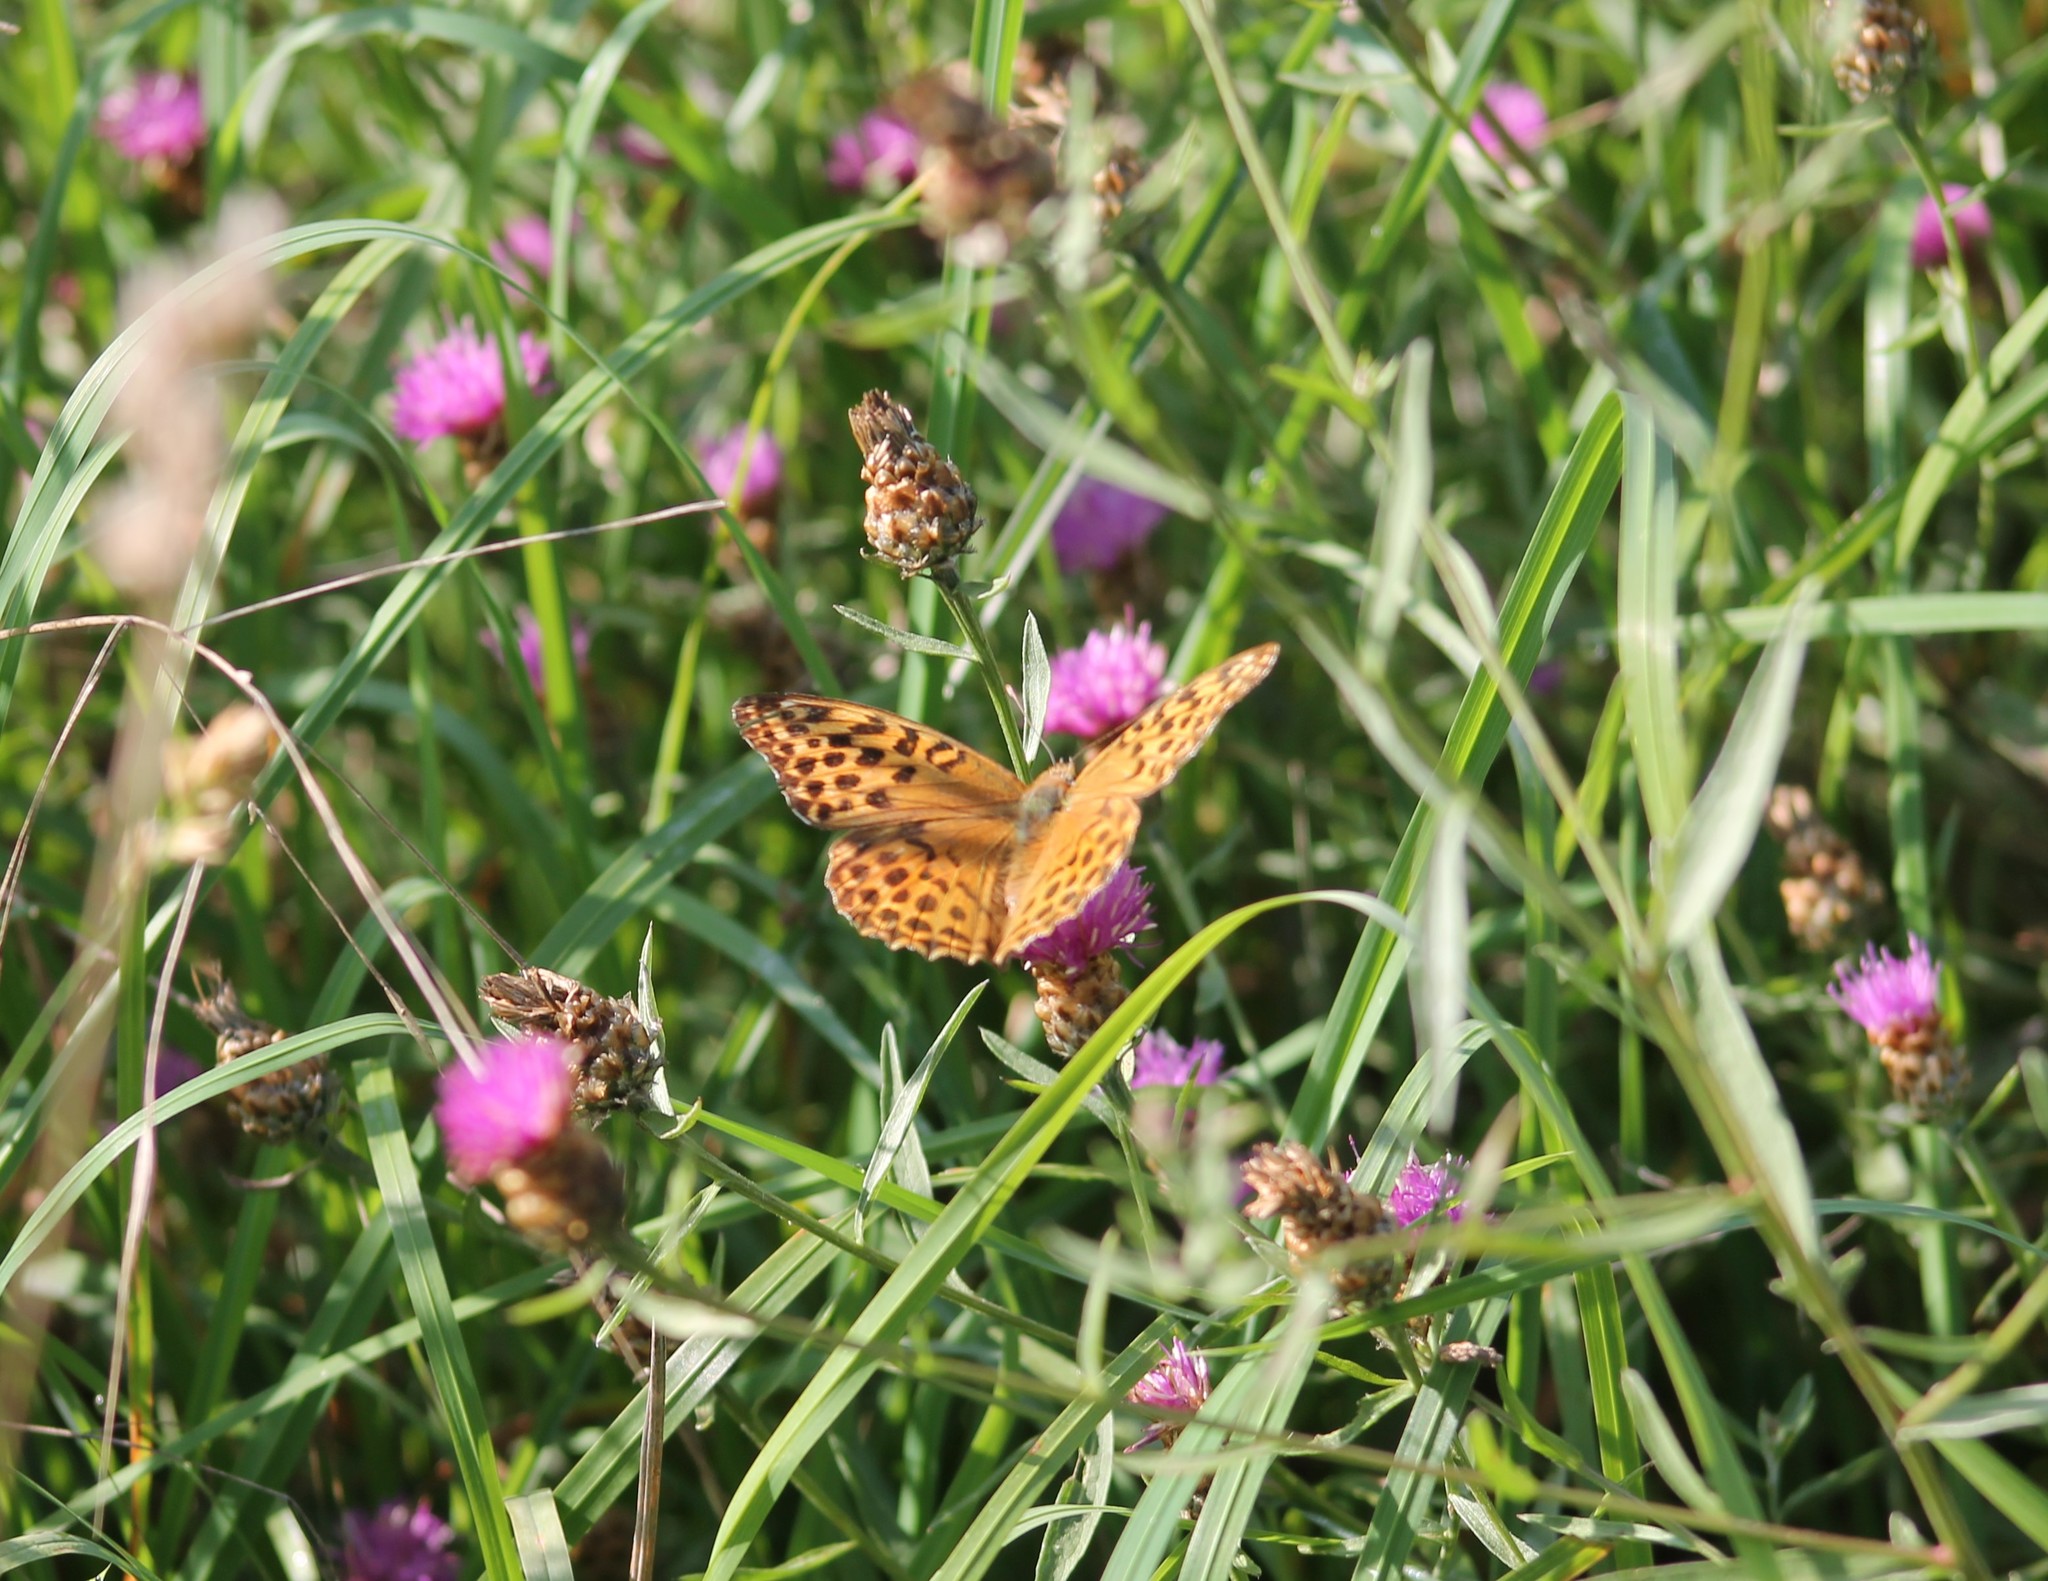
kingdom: Animalia
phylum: Arthropoda
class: Insecta
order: Lepidoptera
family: Nymphalidae
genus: Argynnis
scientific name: Argynnis paphia
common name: Silver-washed fritillary
